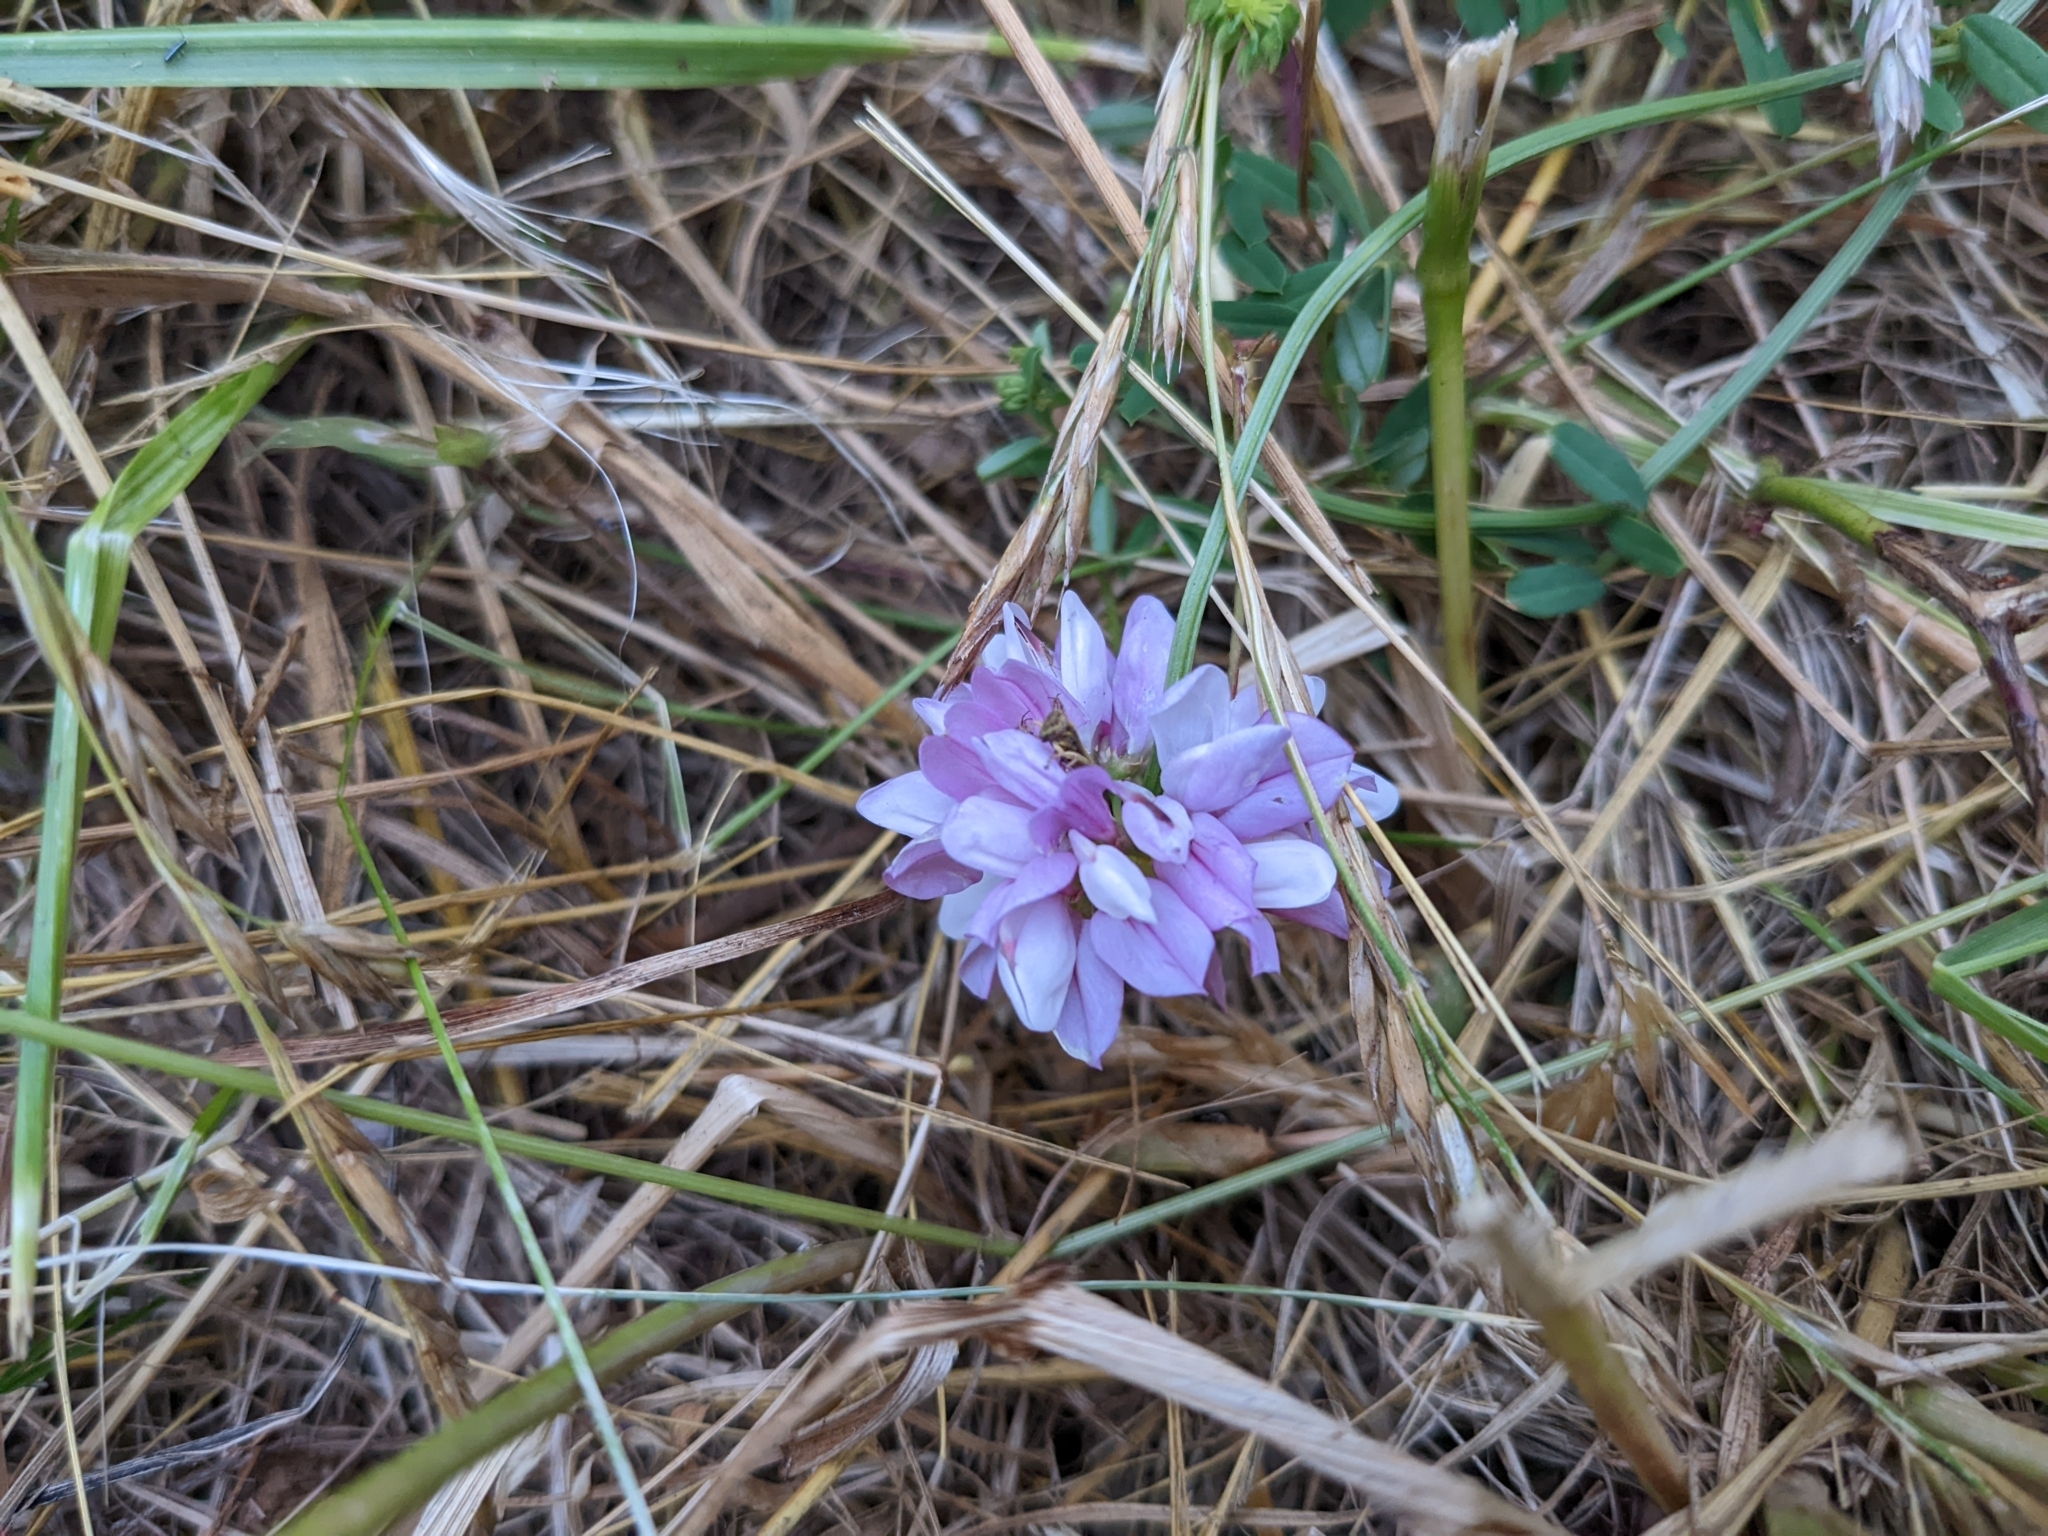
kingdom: Plantae
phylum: Tracheophyta
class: Magnoliopsida
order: Fabales
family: Fabaceae
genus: Coronilla
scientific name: Coronilla varia
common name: Crownvetch
